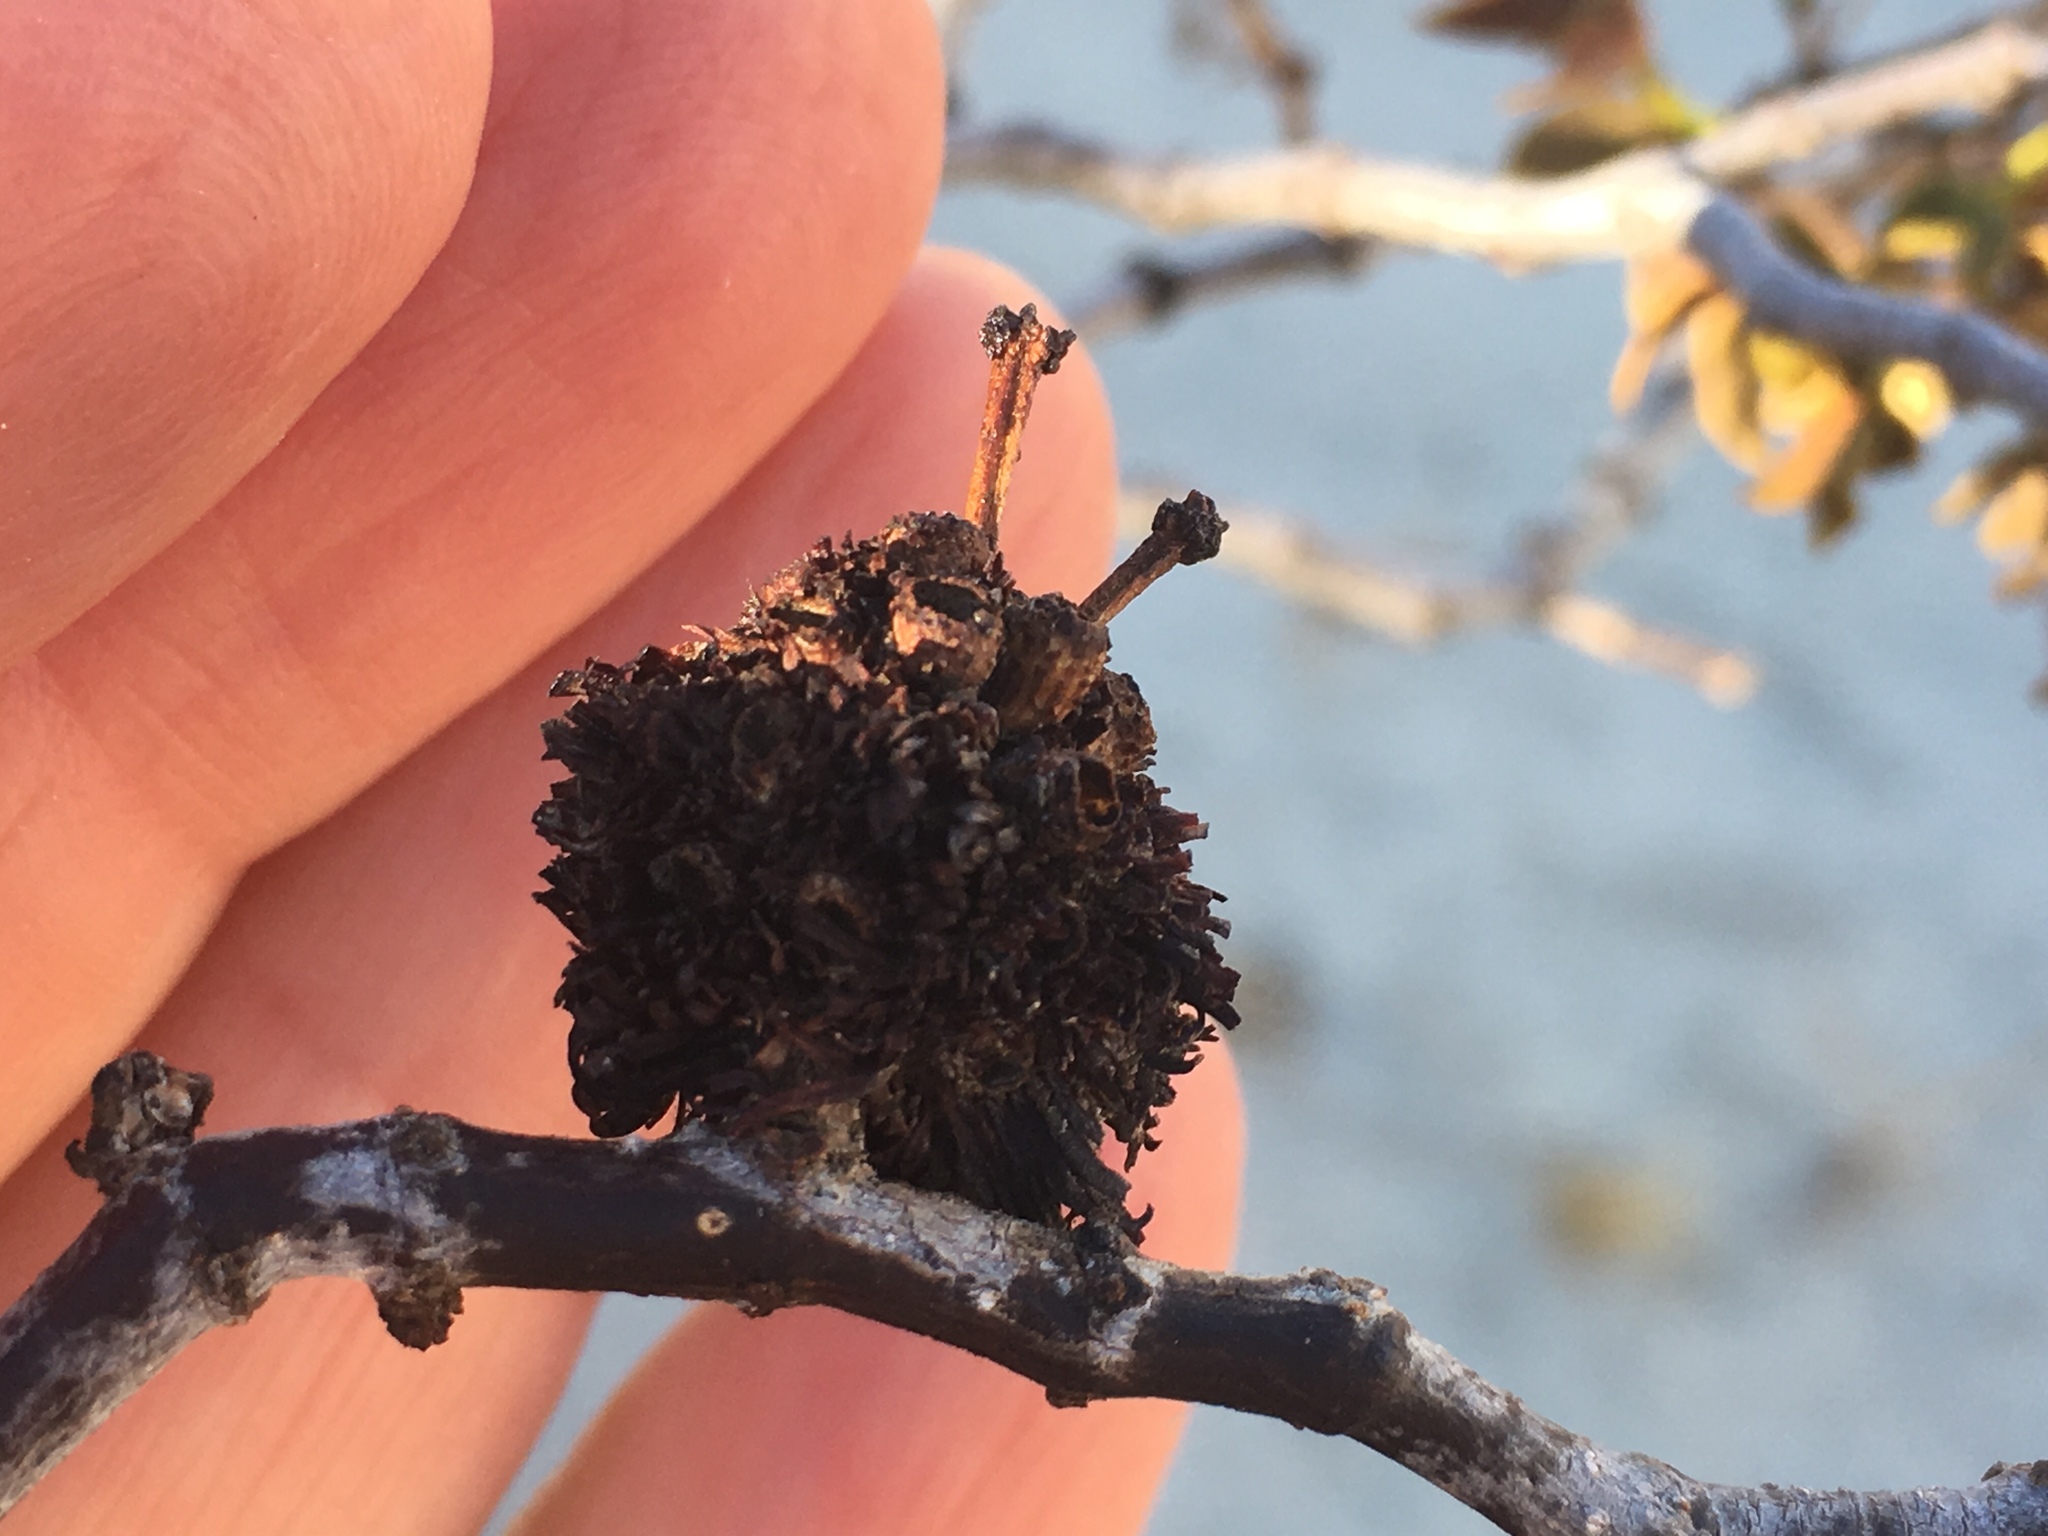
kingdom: Animalia
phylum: Arthropoda
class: Insecta
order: Diptera
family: Cecidomyiidae
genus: Asphondylia
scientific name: Asphondylia auripila
